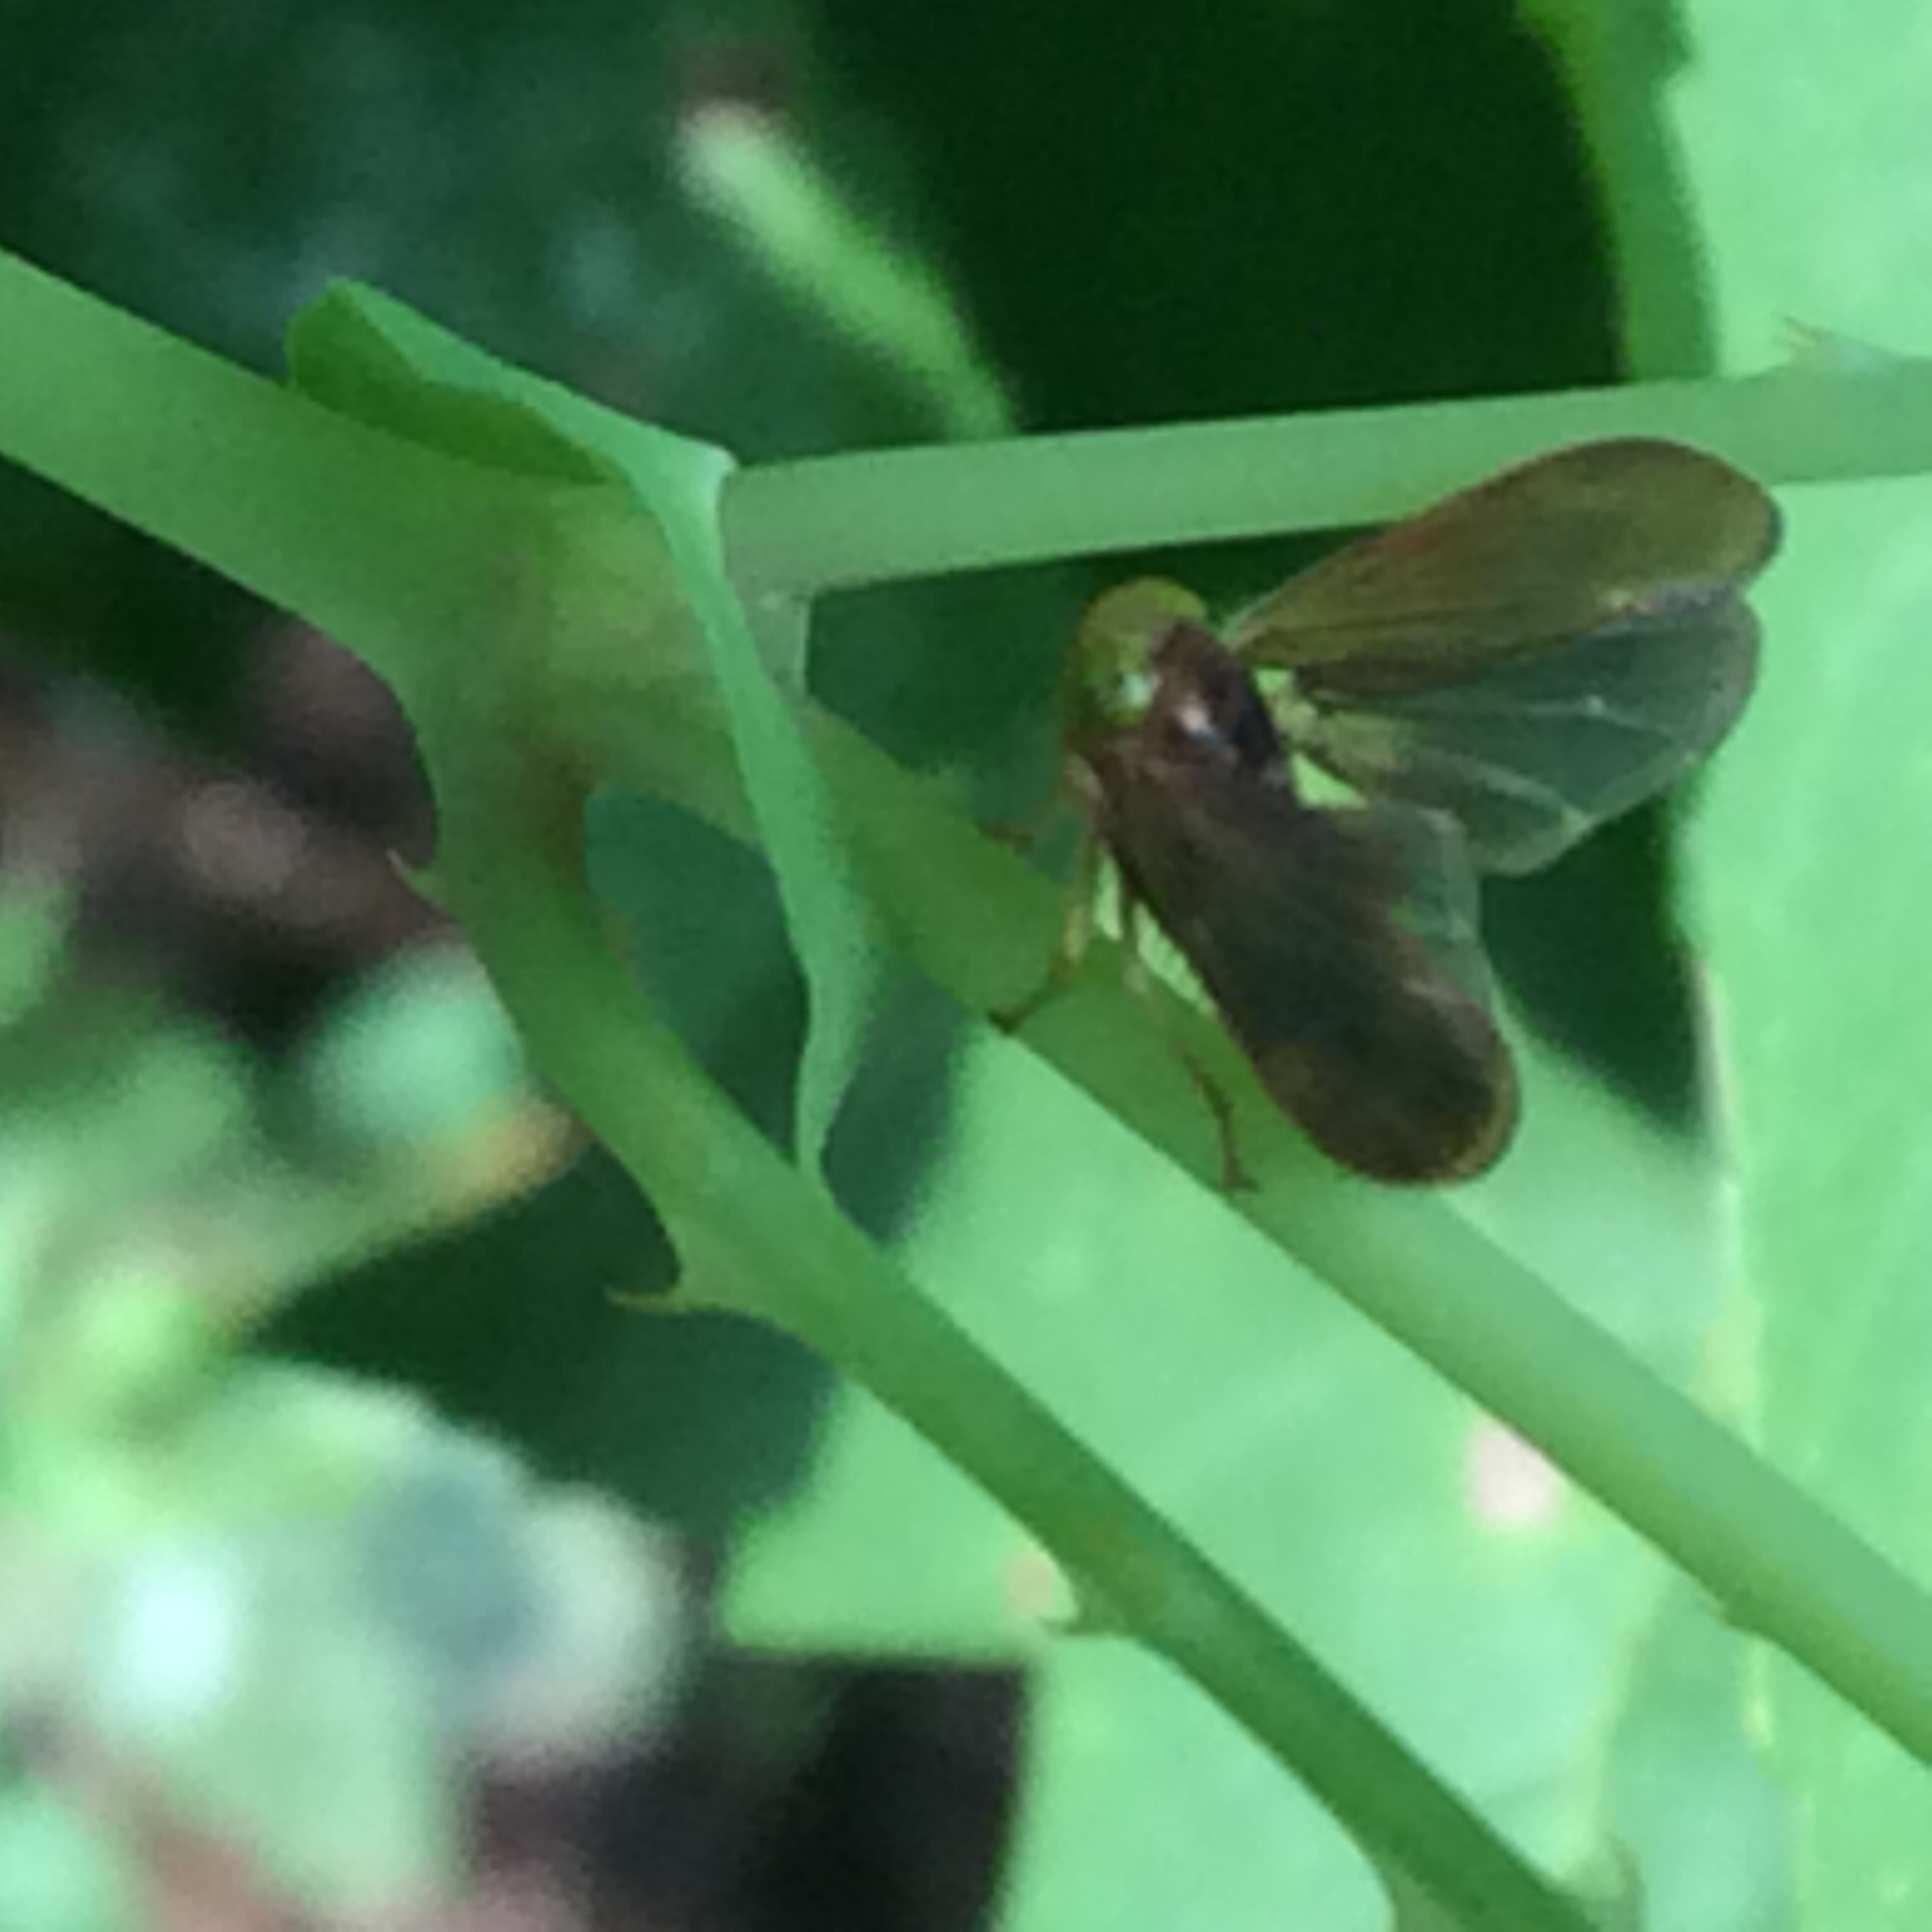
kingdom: Animalia
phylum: Arthropoda
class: Insecta
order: Hemiptera
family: Cicadellidae
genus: Jikradia
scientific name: Jikradia olitoria
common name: Coppery leafhopper
